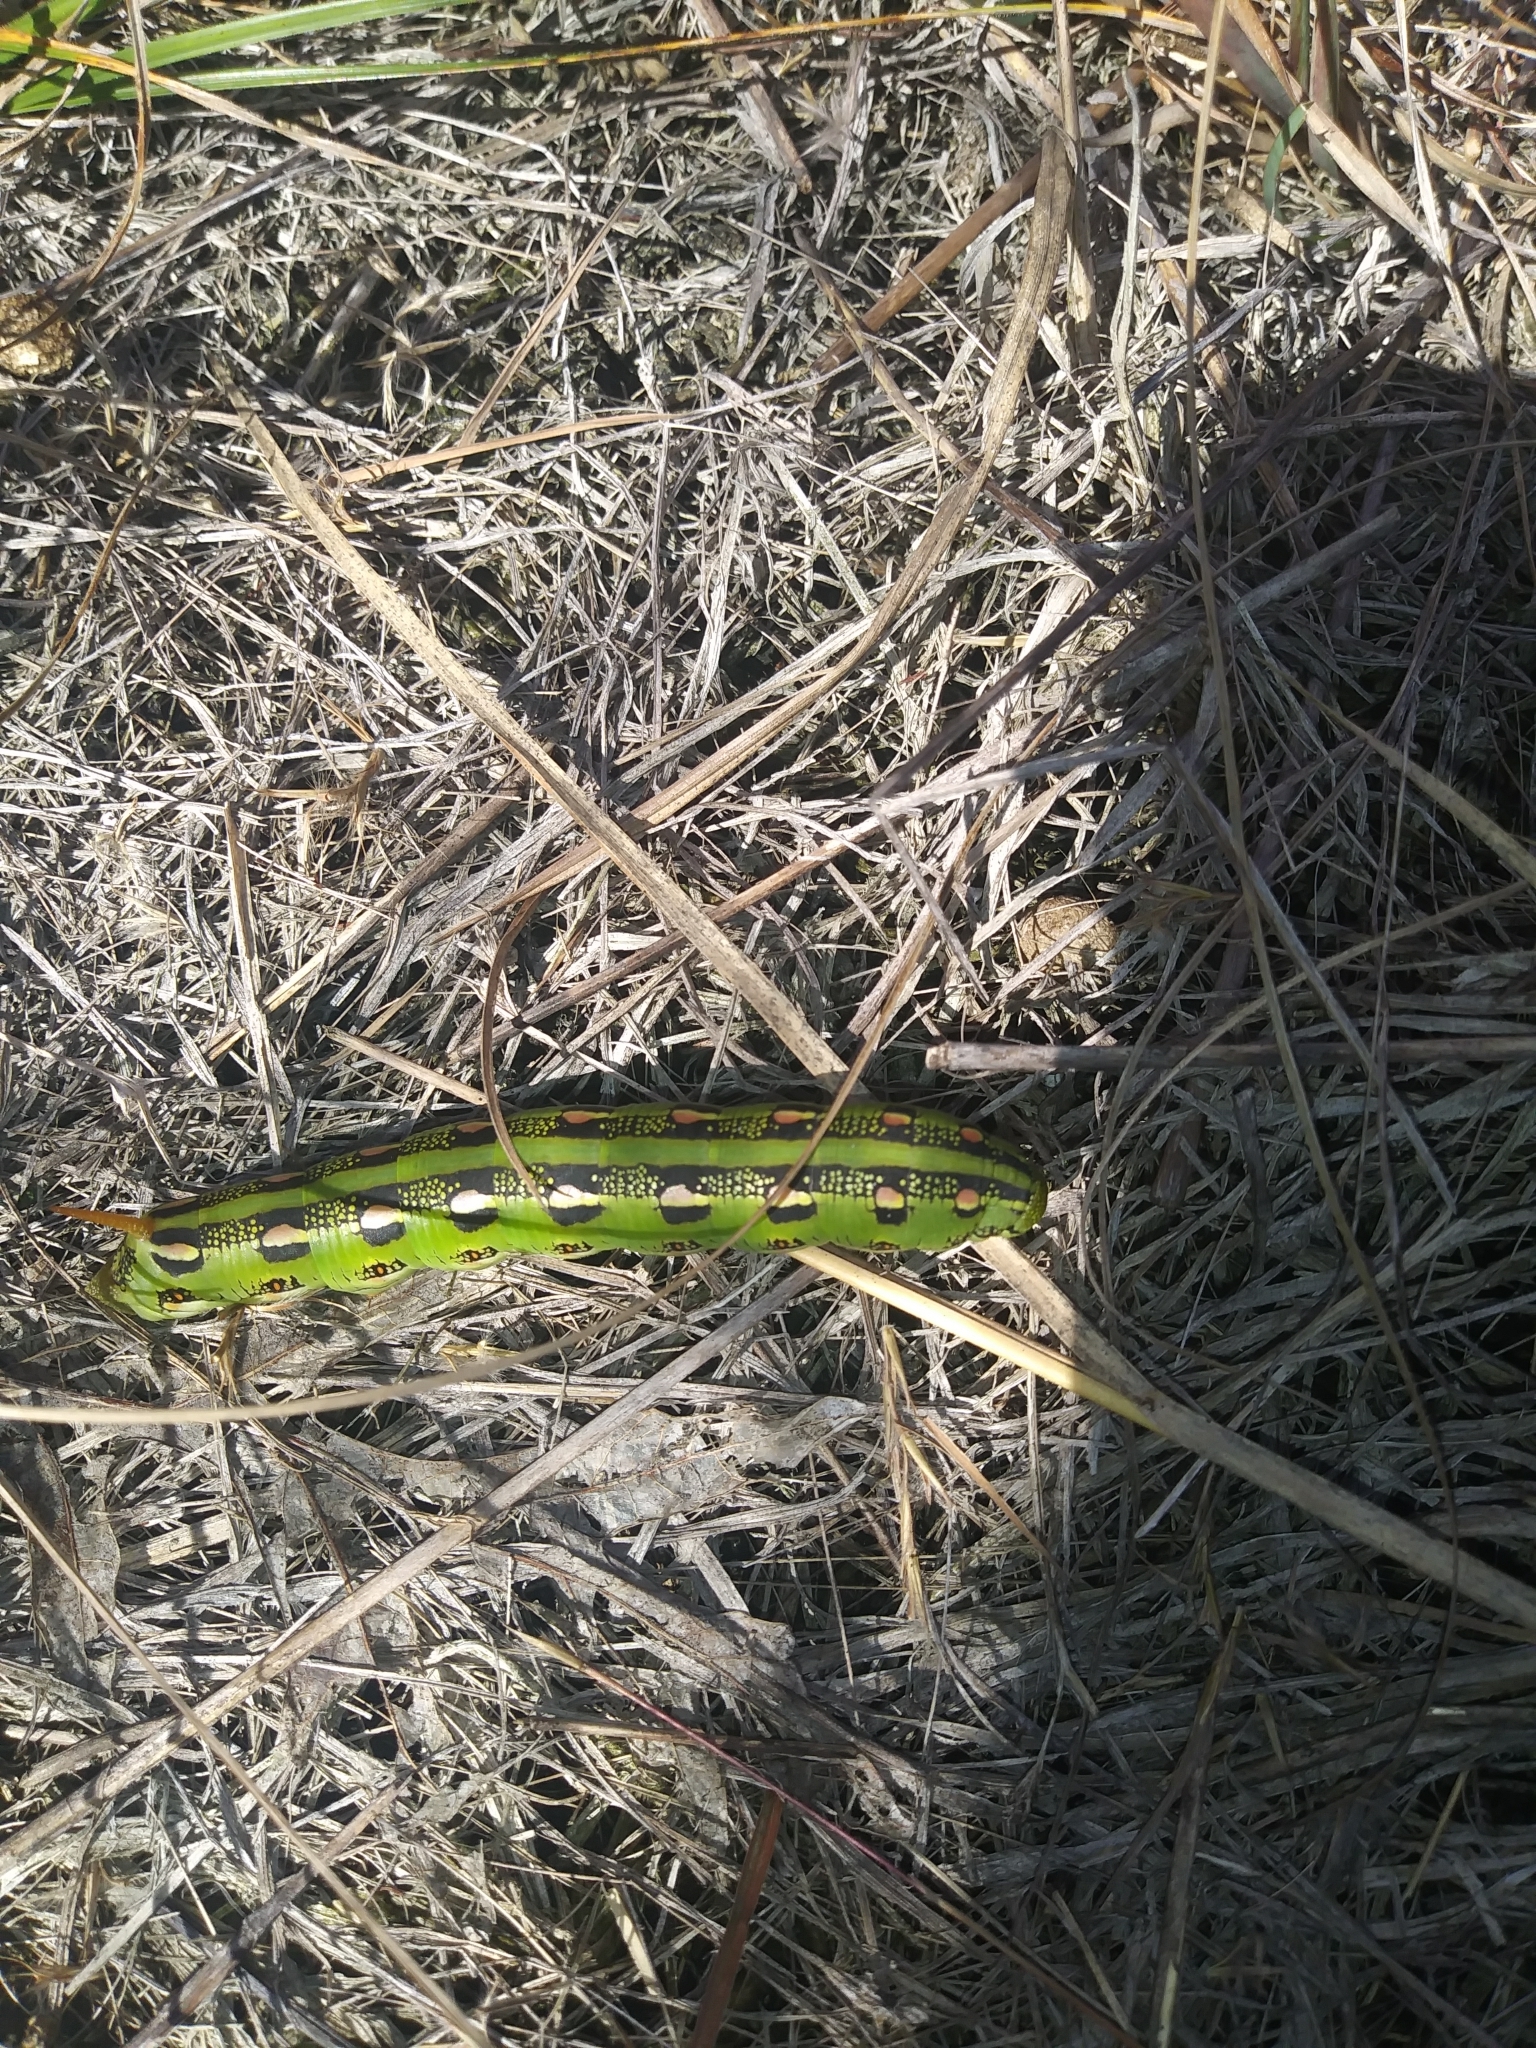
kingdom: Animalia
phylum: Arthropoda
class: Insecta
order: Lepidoptera
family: Sphingidae
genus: Hyles
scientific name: Hyles lineata
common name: White-lined sphinx
